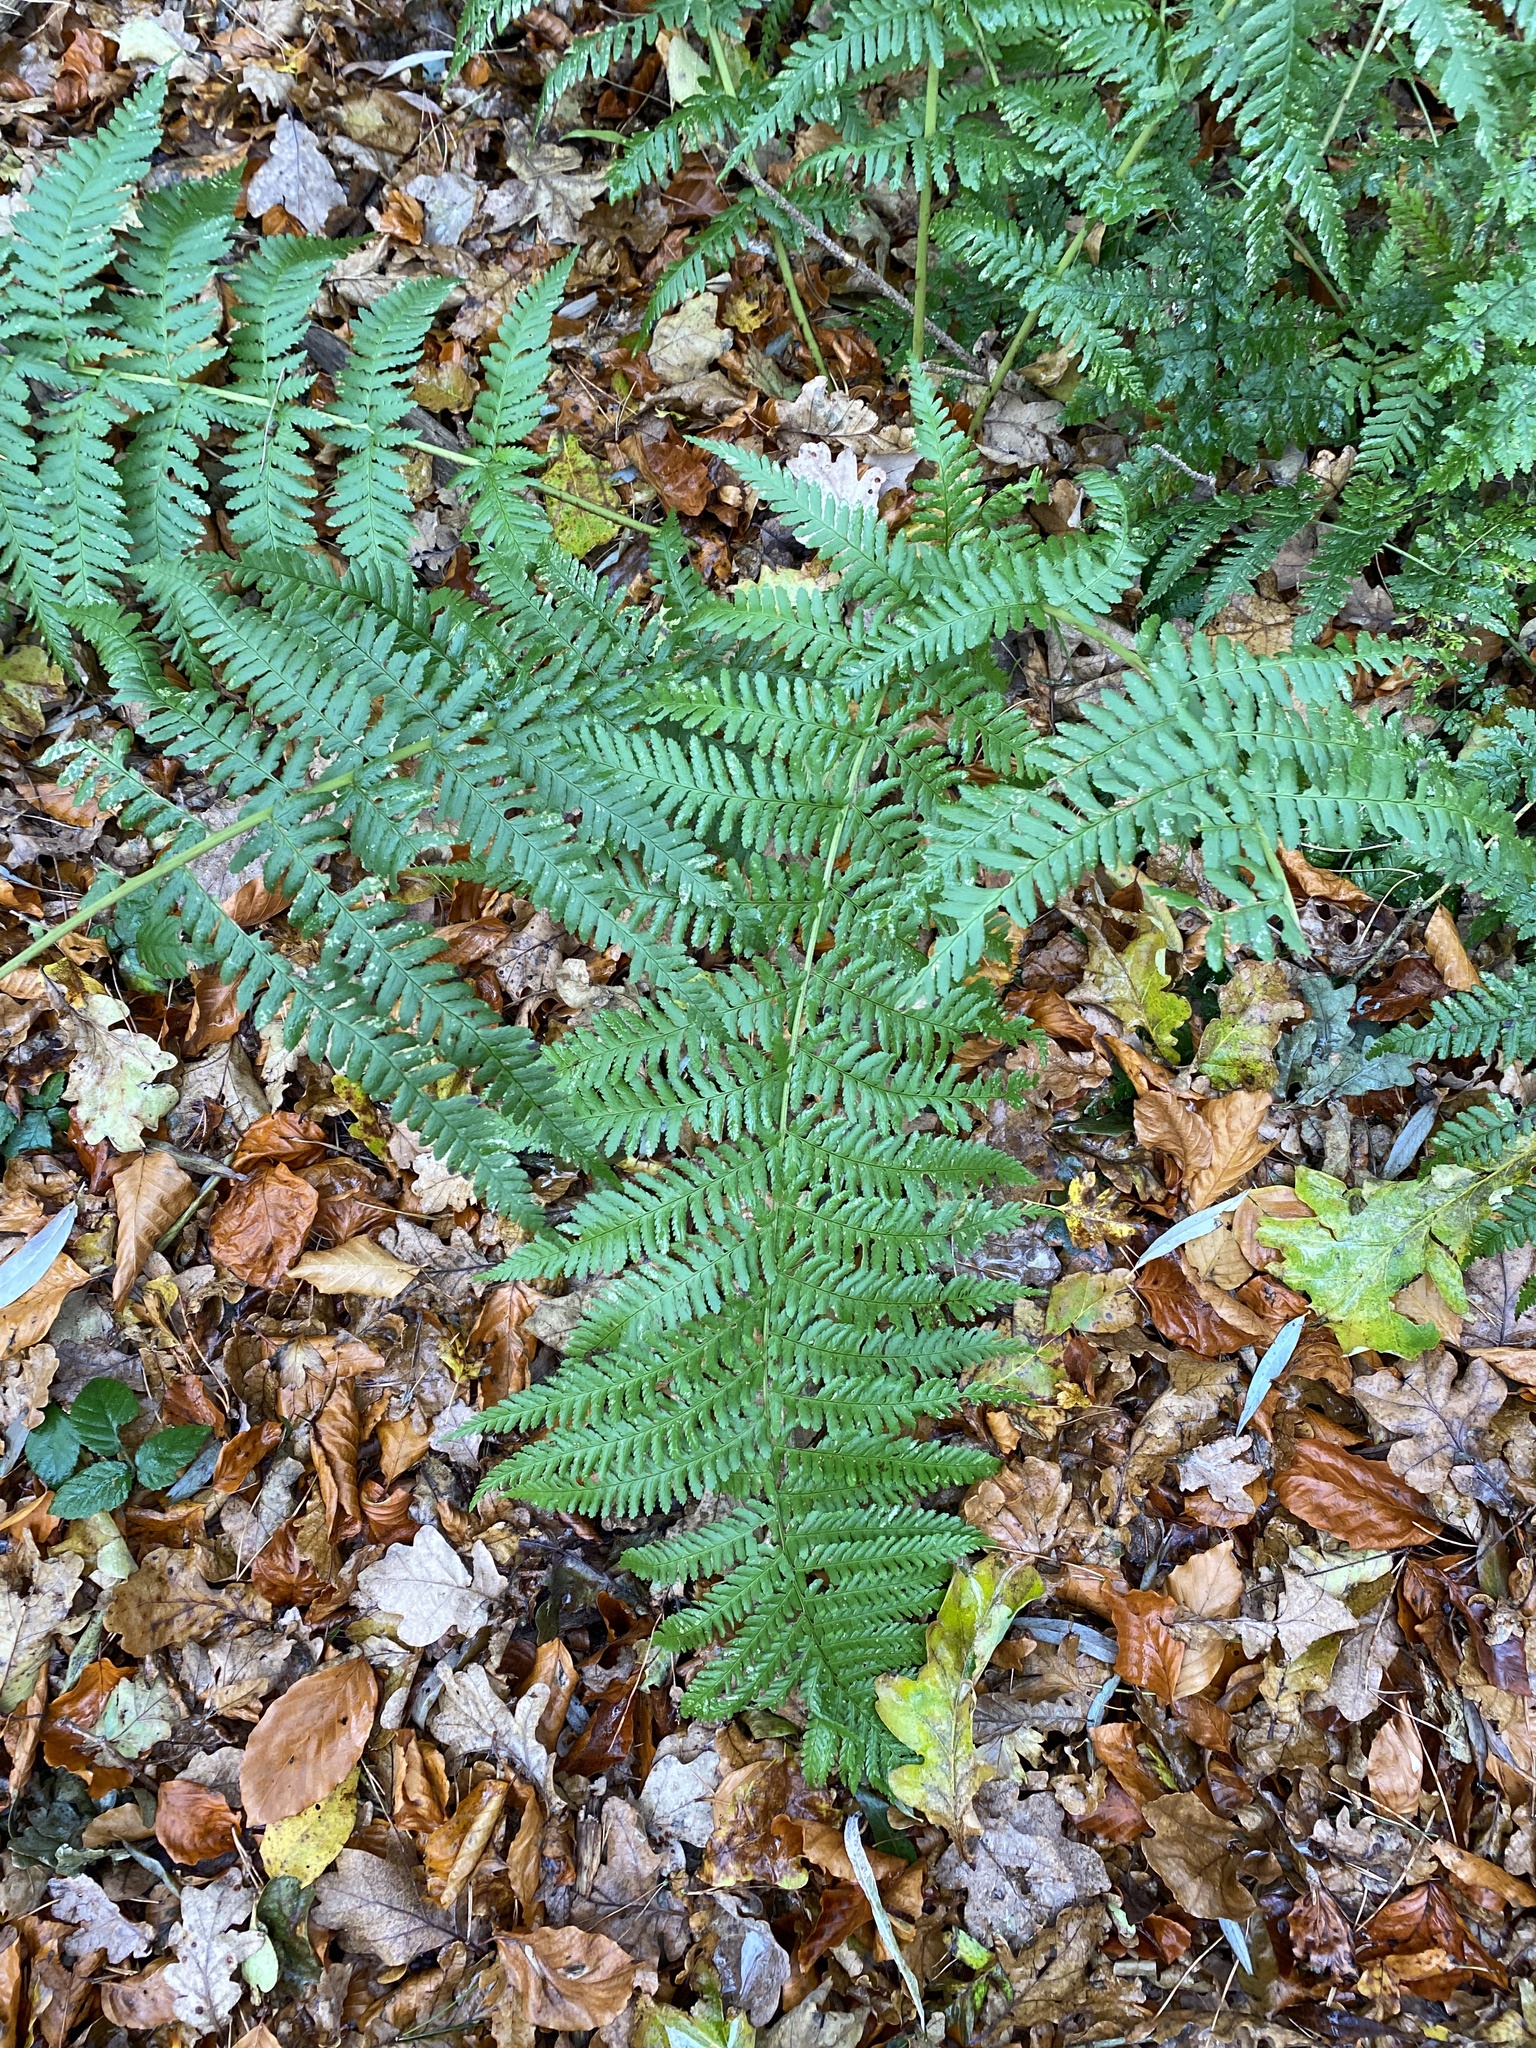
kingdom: Plantae
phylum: Tracheophyta
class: Polypodiopsida
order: Polypodiales
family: Dryopteridaceae
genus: Dryopteris
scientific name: Dryopteris filix-mas
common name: Male fern
